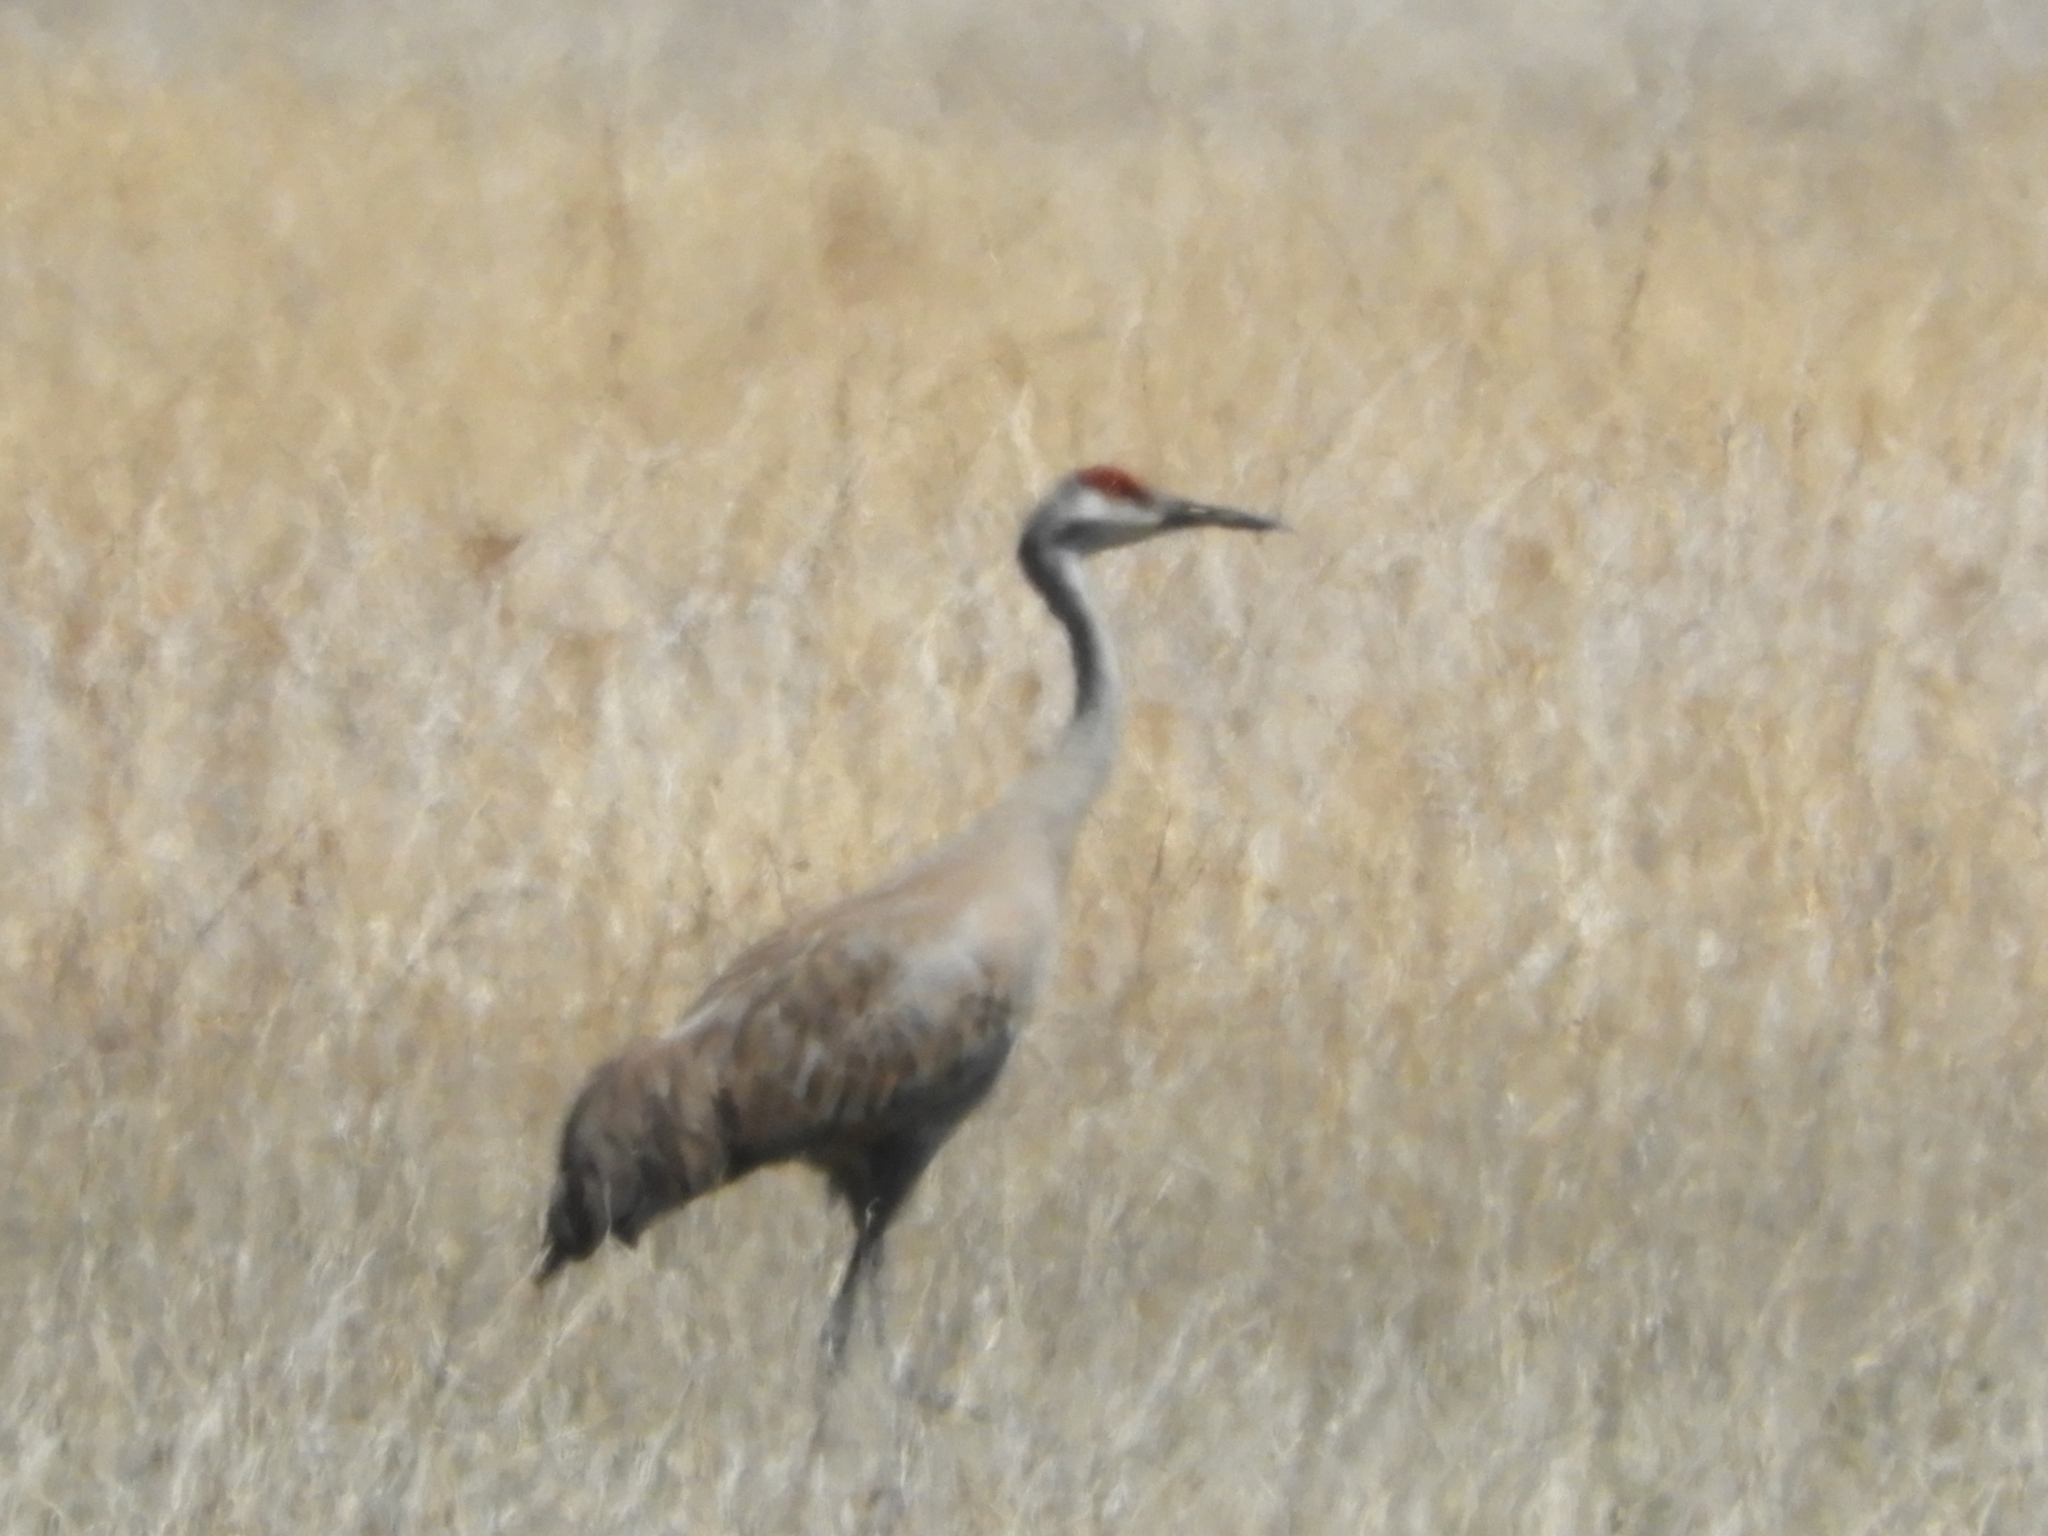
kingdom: Animalia
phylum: Chordata
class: Aves
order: Gruiformes
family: Gruidae
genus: Grus
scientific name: Grus canadensis
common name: Sandhill crane
